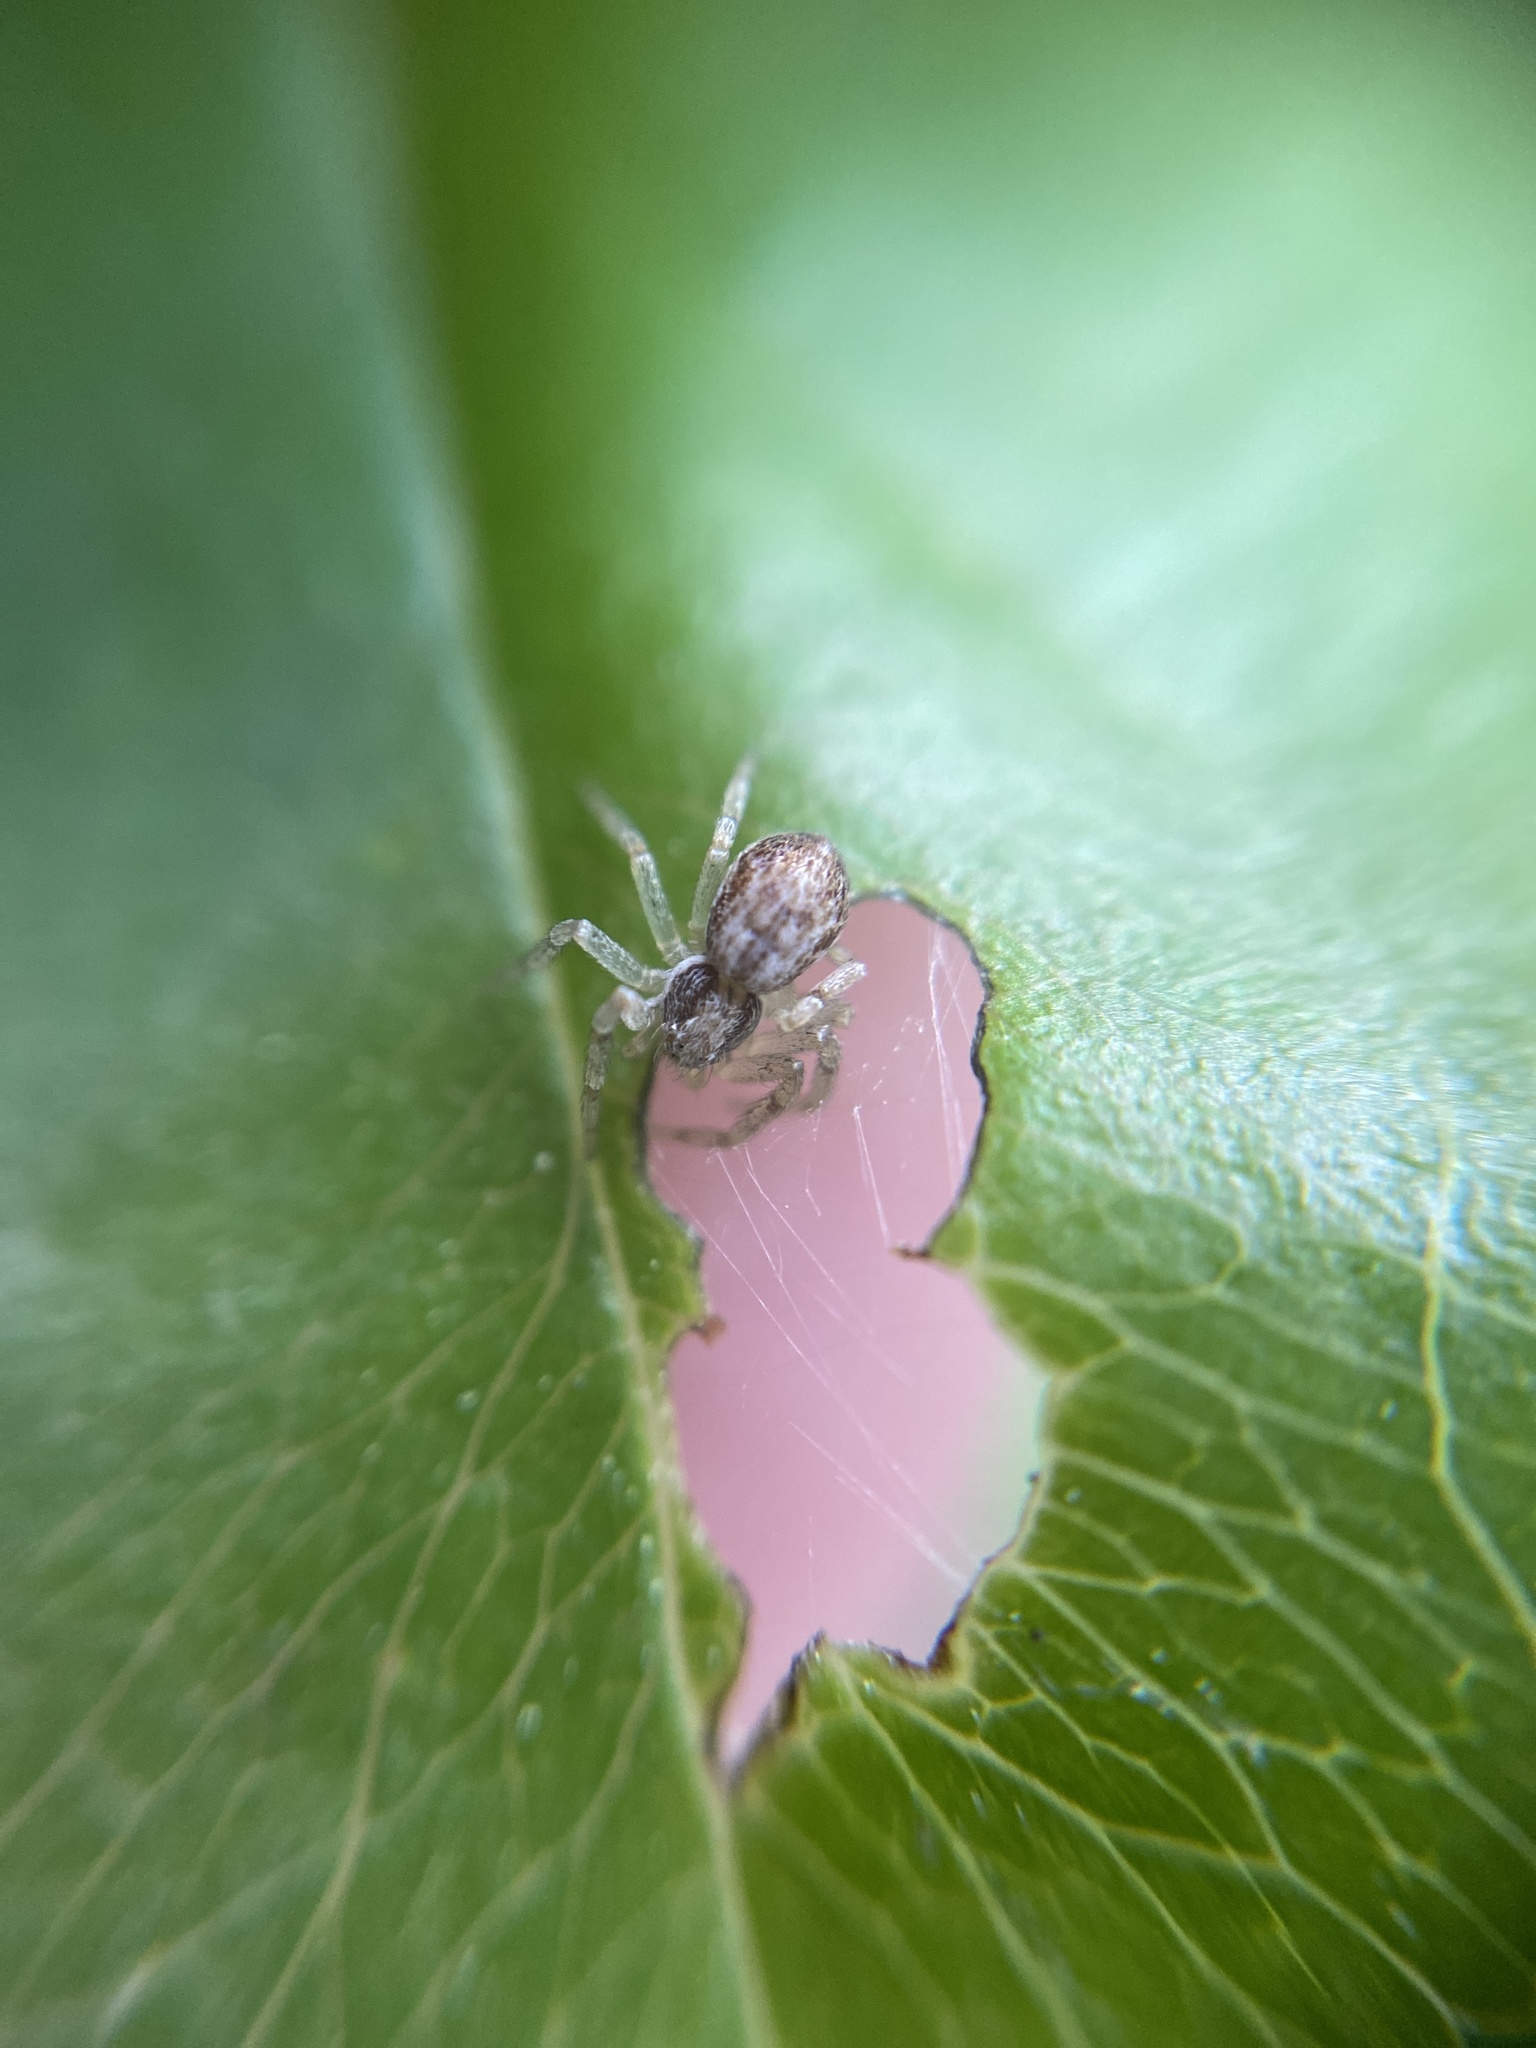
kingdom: Animalia
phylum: Arthropoda
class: Arachnida
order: Araneae
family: Philodromidae
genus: Philodromus
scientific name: Philodromus dispar
